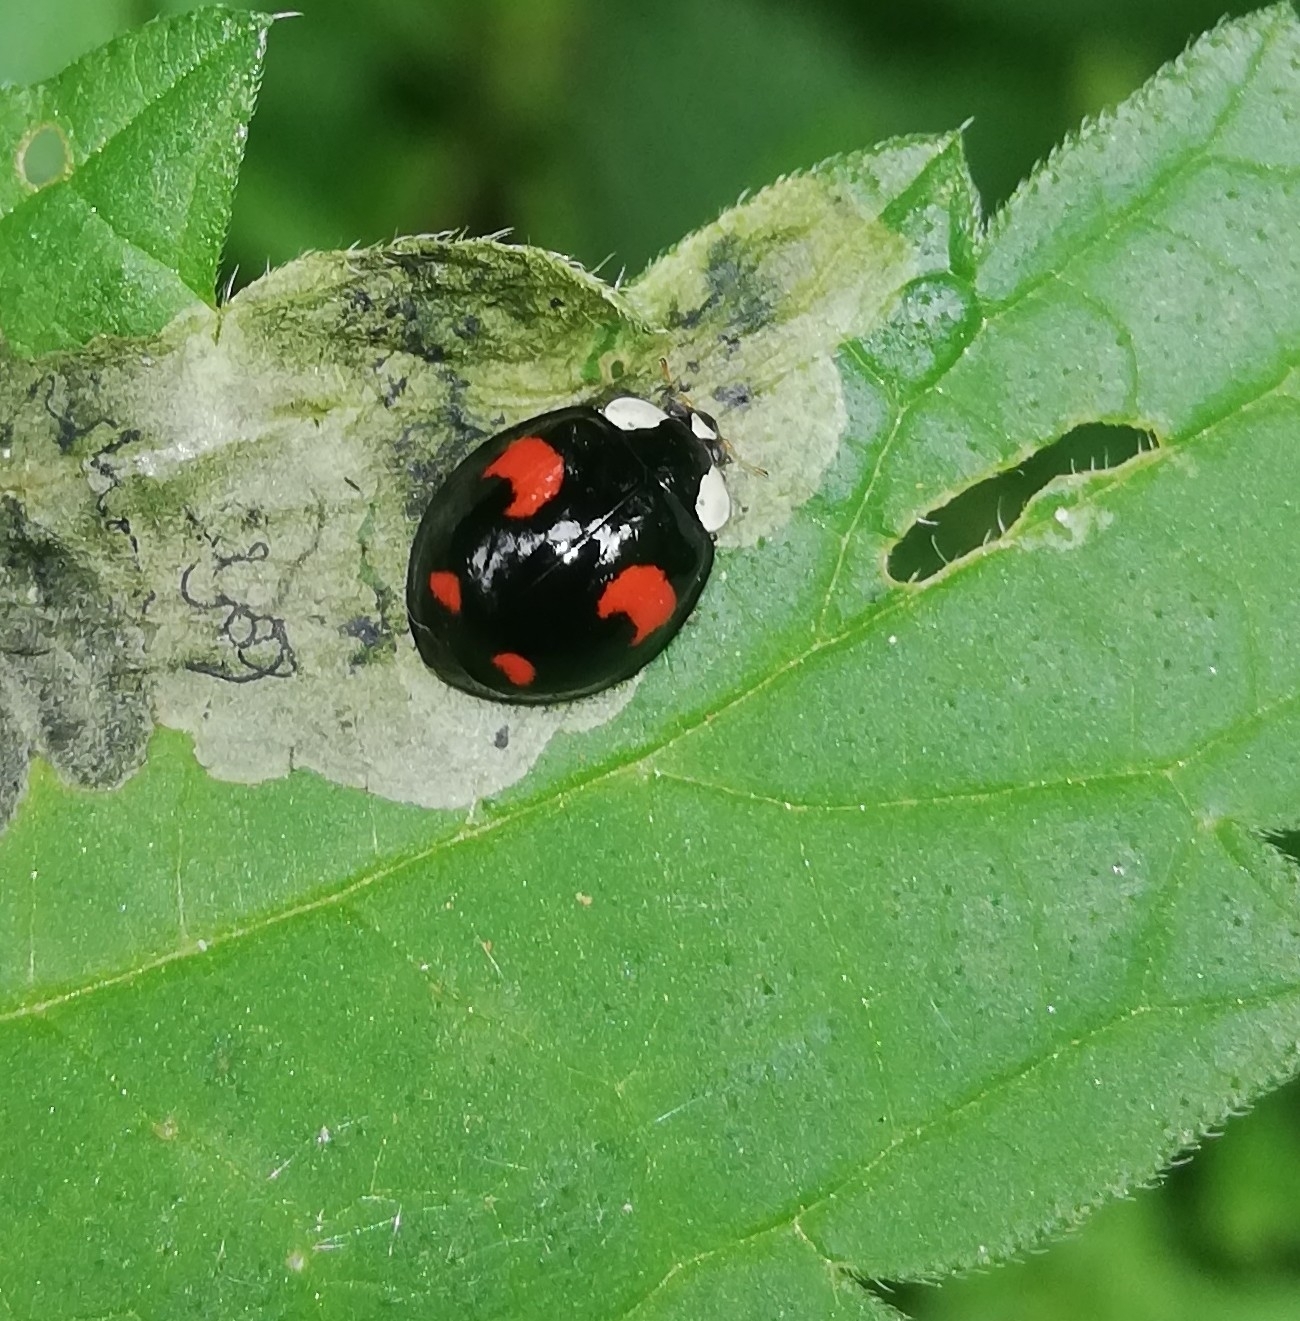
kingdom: Animalia
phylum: Arthropoda
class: Insecta
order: Coleoptera
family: Coccinellidae
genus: Harmonia
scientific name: Harmonia axyridis
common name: Harlequin ladybird
